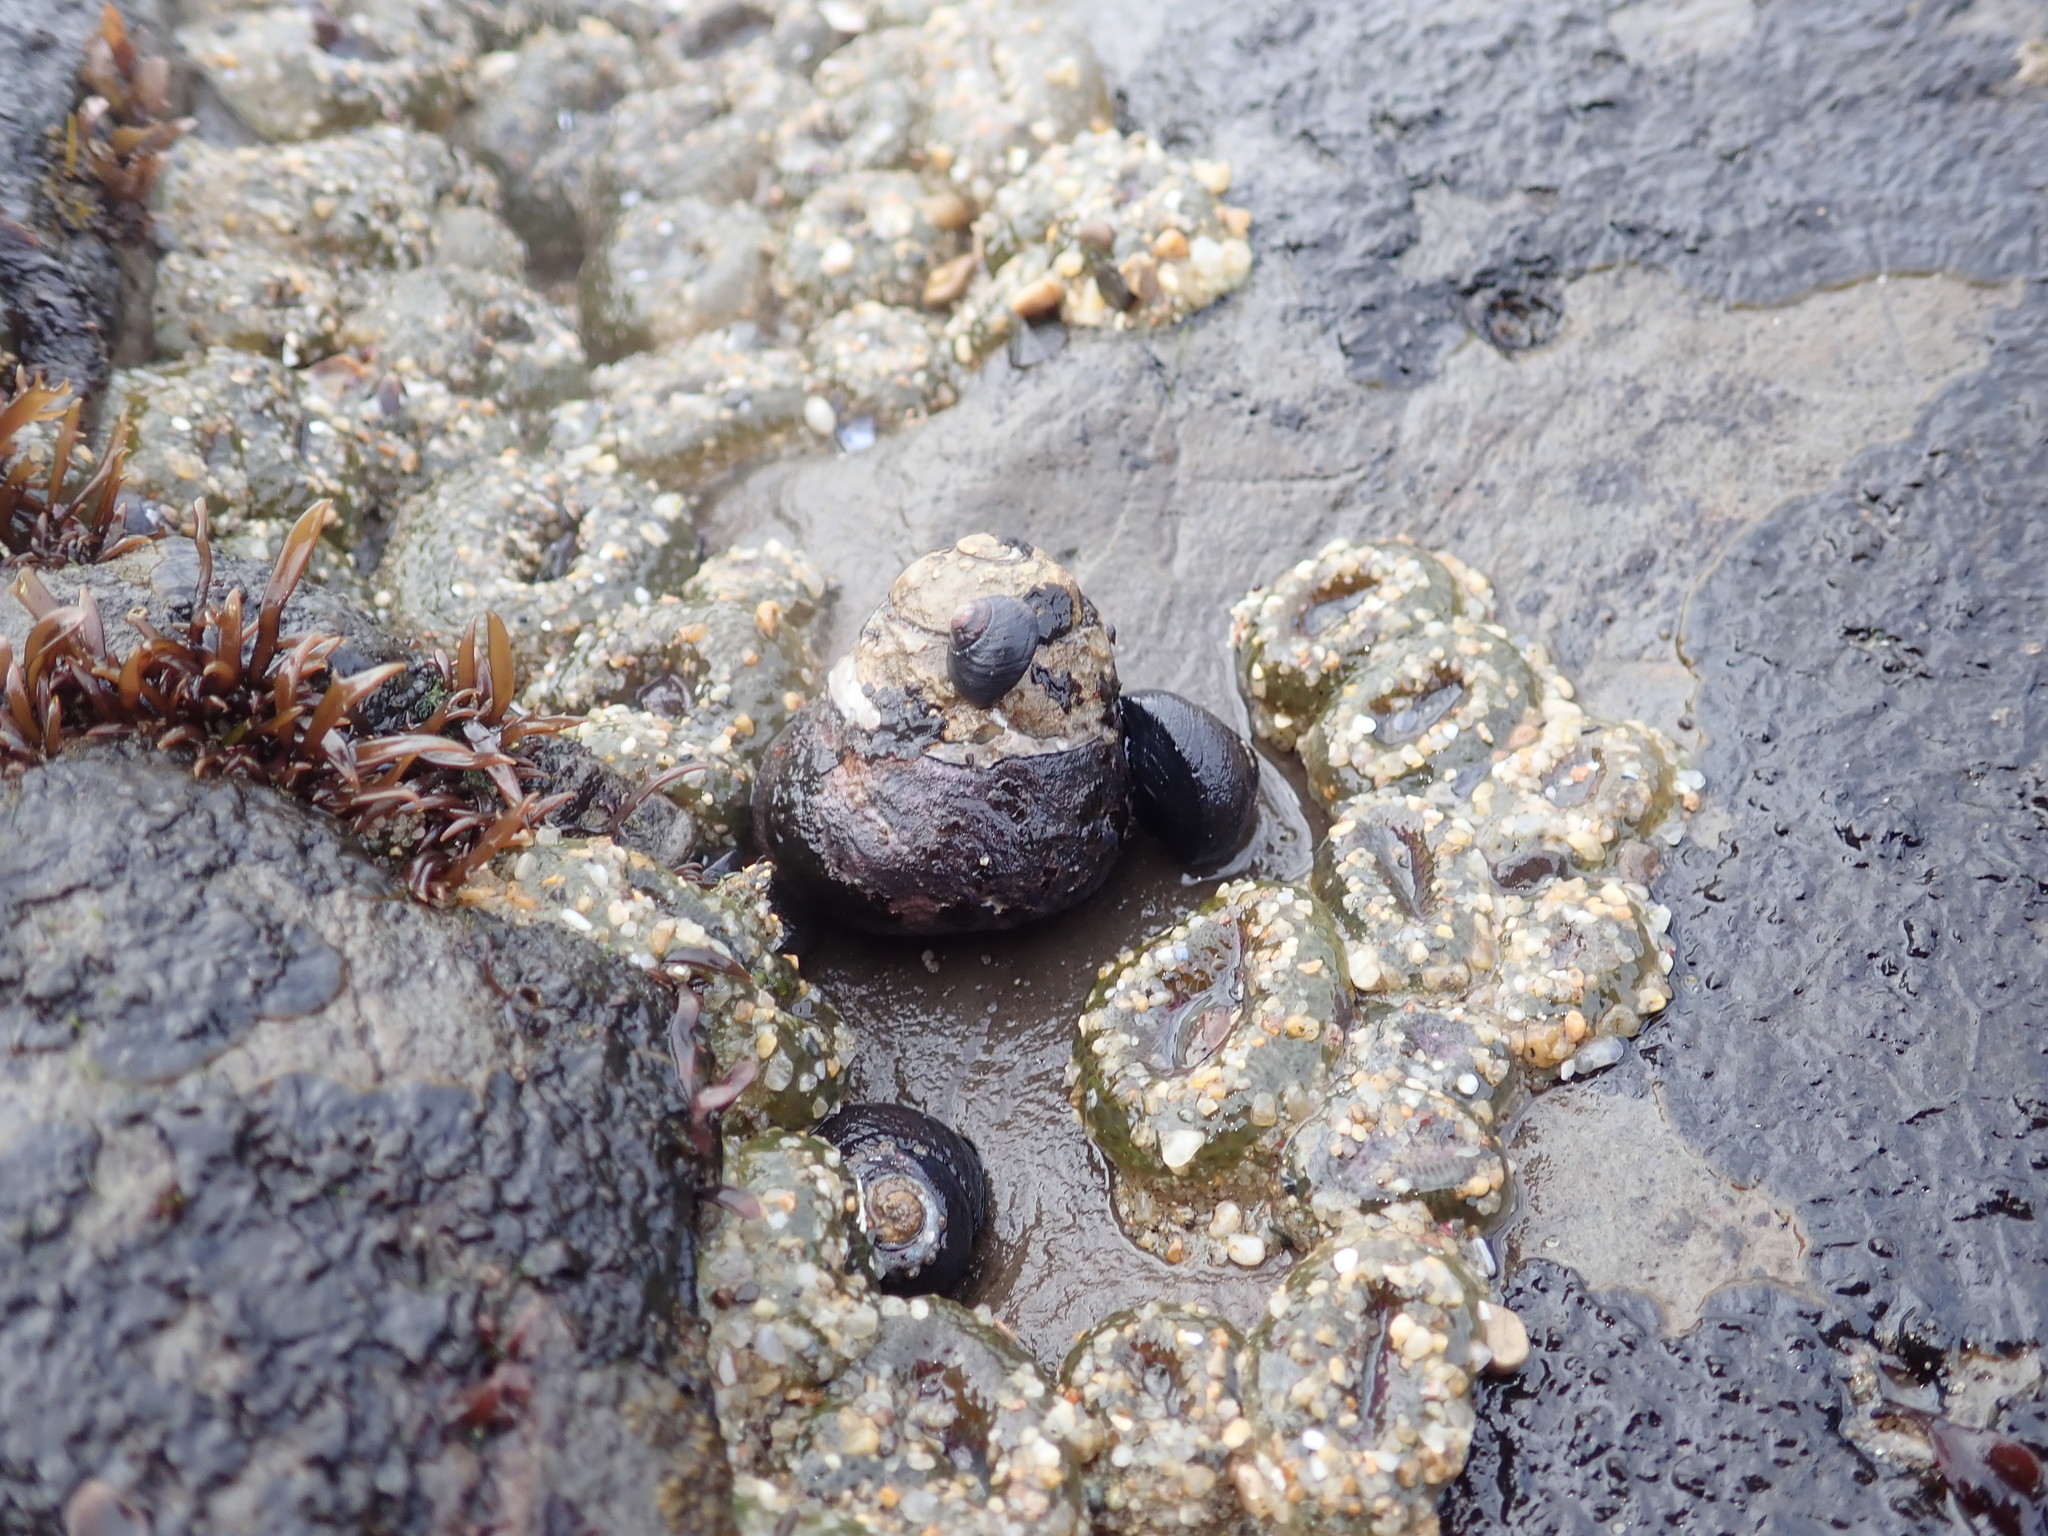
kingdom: Animalia
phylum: Mollusca
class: Gastropoda
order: Trochida
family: Tegulidae
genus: Tegula
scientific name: Tegula funebralis
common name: Black tegula
